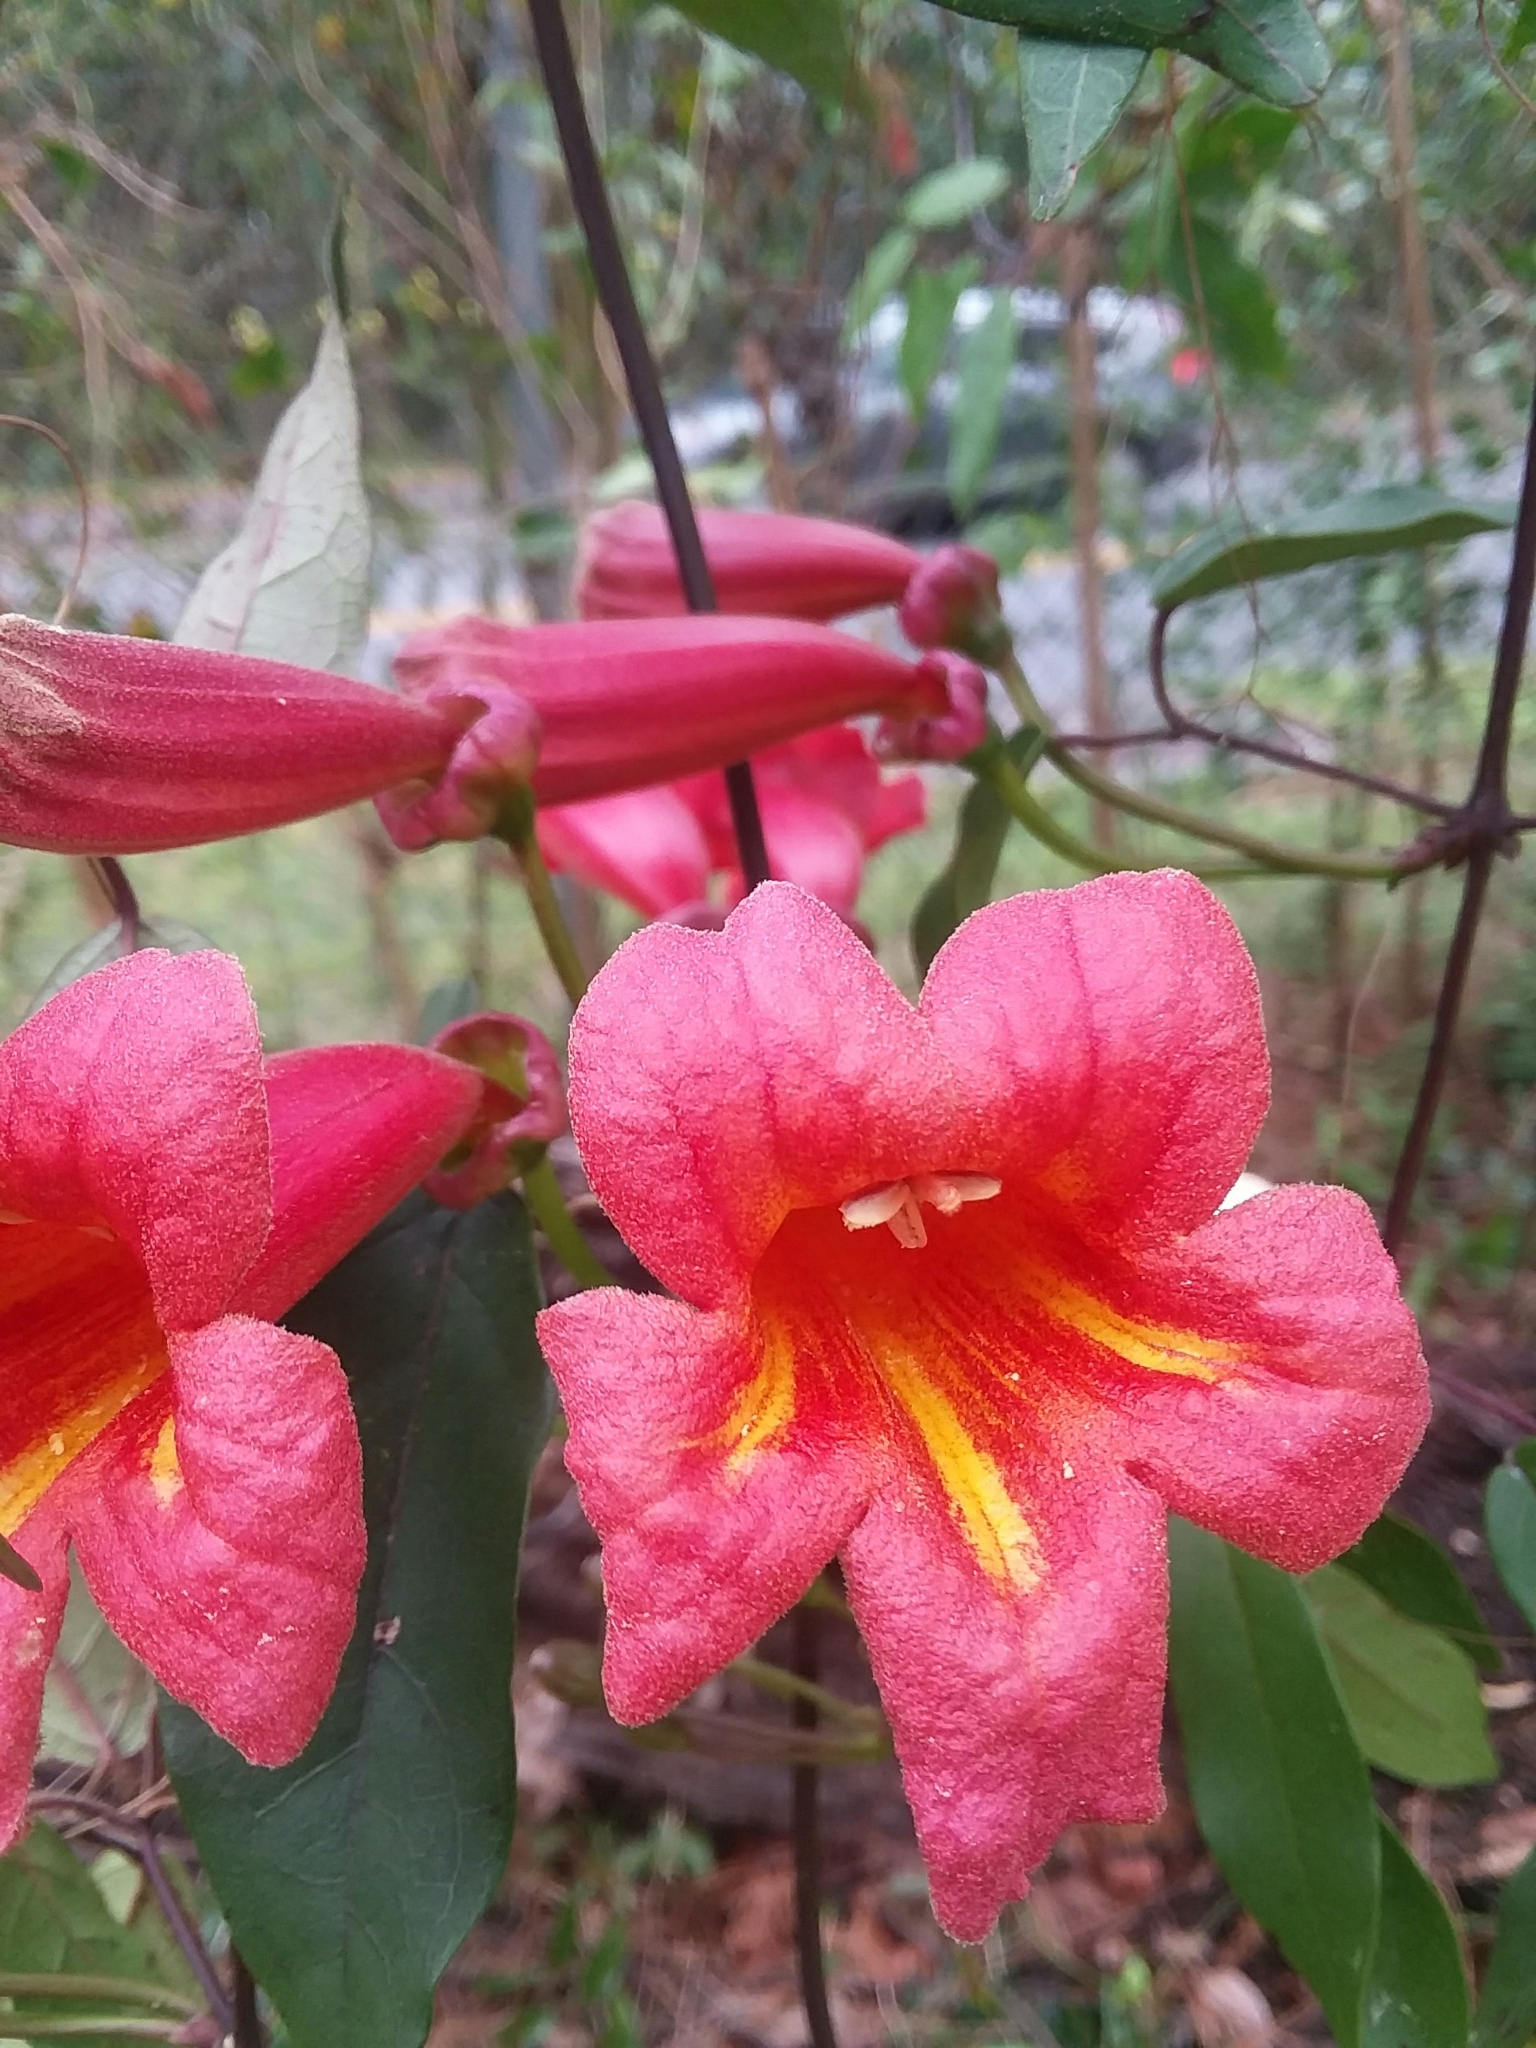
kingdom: Plantae
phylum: Tracheophyta
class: Magnoliopsida
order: Lamiales
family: Bignoniaceae
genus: Bignonia
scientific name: Bignonia capreolata
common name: Crossvine
